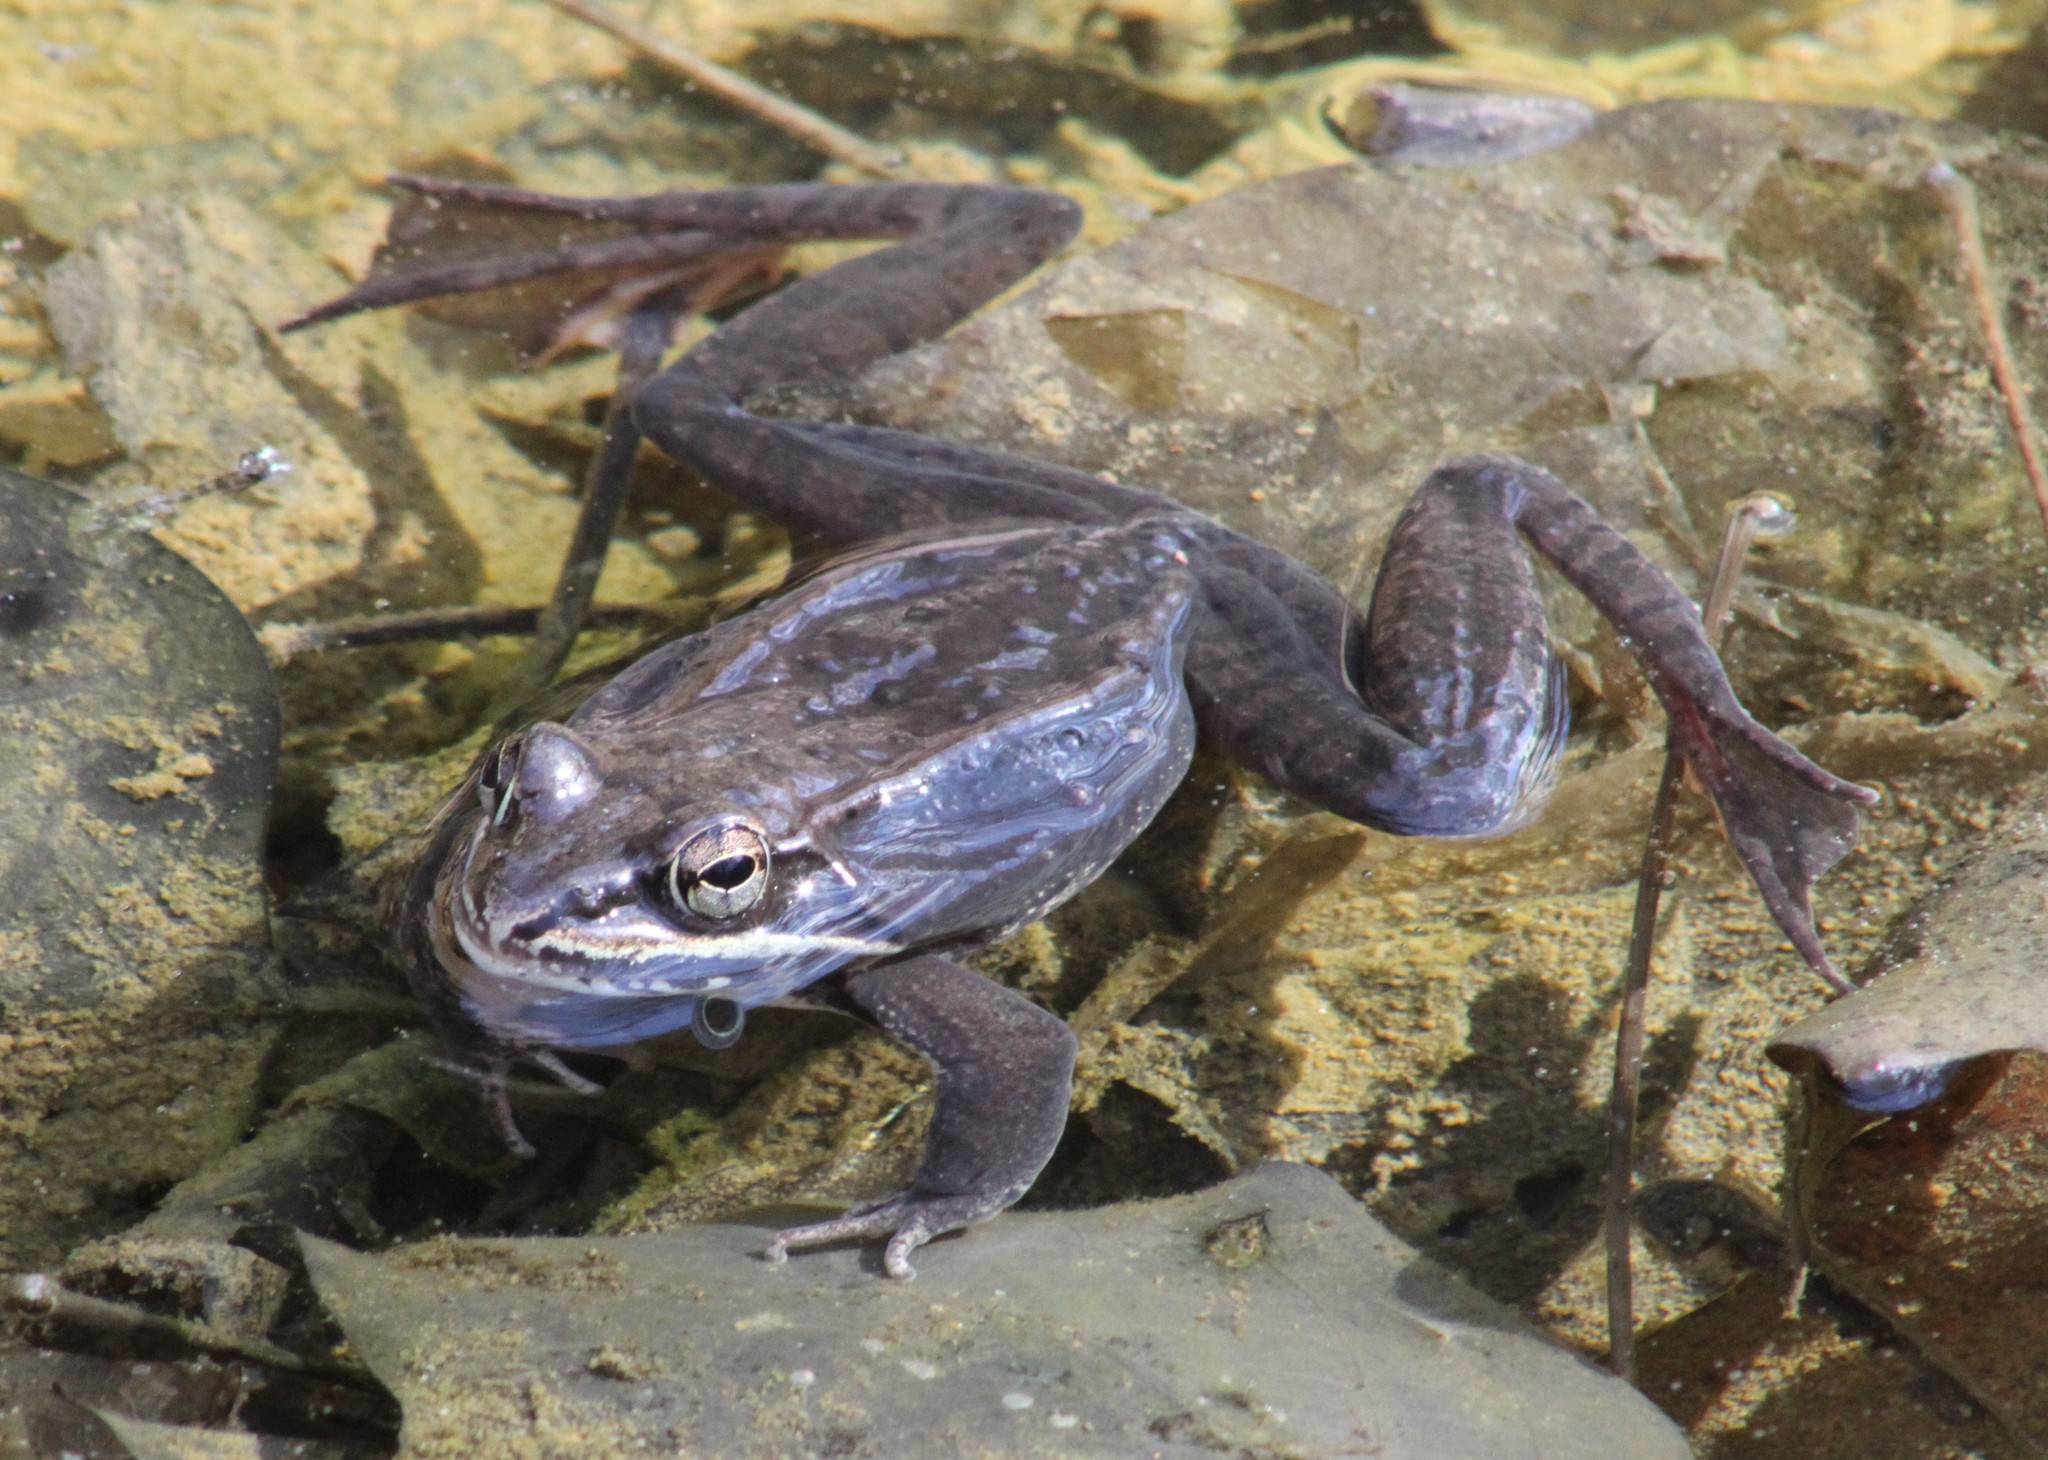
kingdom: Animalia
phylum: Chordata
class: Amphibia
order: Anura
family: Ranidae
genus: Lithobates
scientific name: Lithobates sylvaticus
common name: Wood frog
